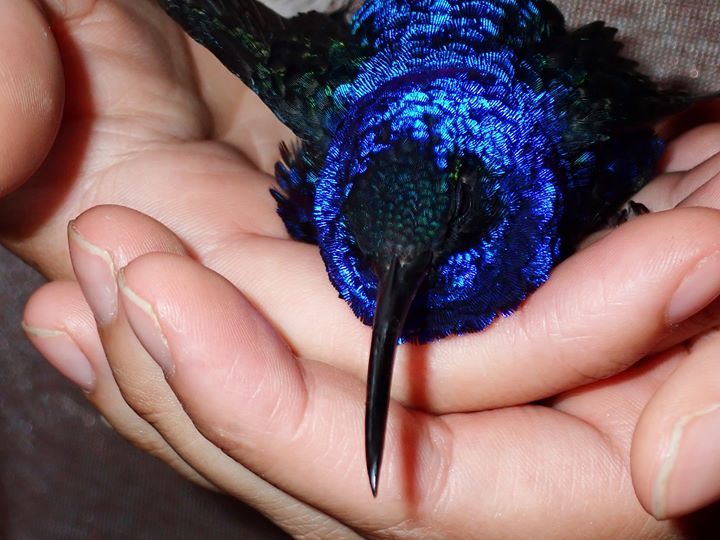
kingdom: Animalia
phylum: Chordata
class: Aves
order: Apodiformes
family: Trochilidae
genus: Campylopterus
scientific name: Campylopterus hemileucurus
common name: Violet sabrewing
